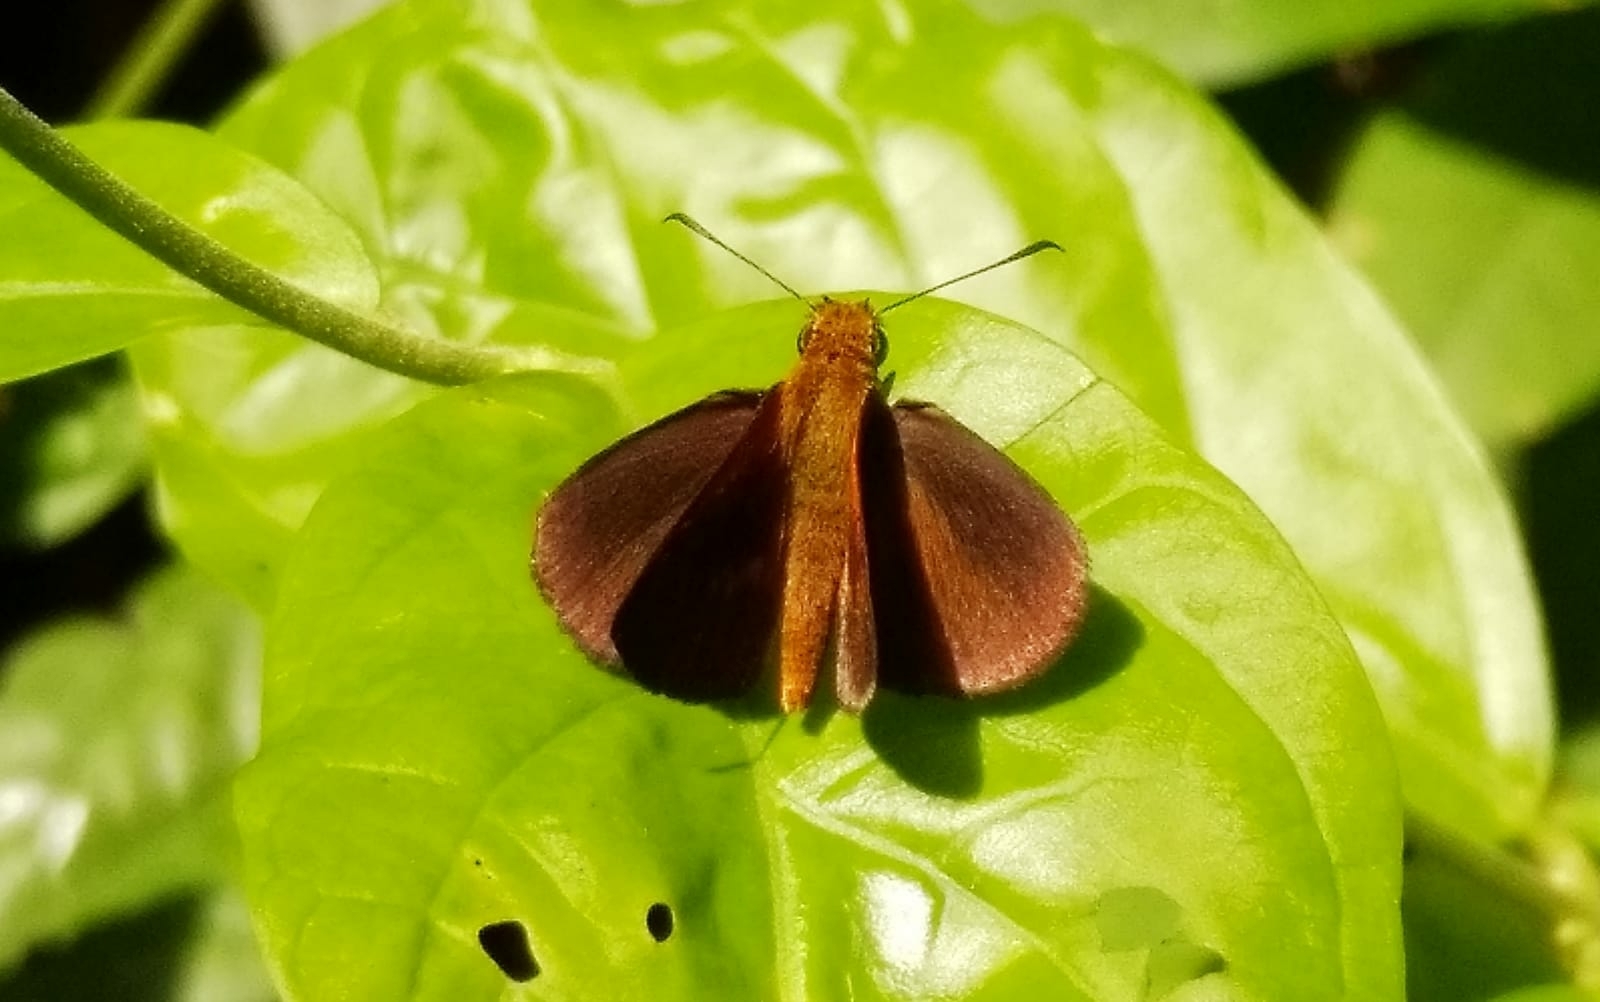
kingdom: Animalia
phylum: Arthropoda
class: Insecta
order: Lepidoptera
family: Hesperiidae
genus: Iambrix
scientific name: Iambrix salsala
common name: Chestnut bob
